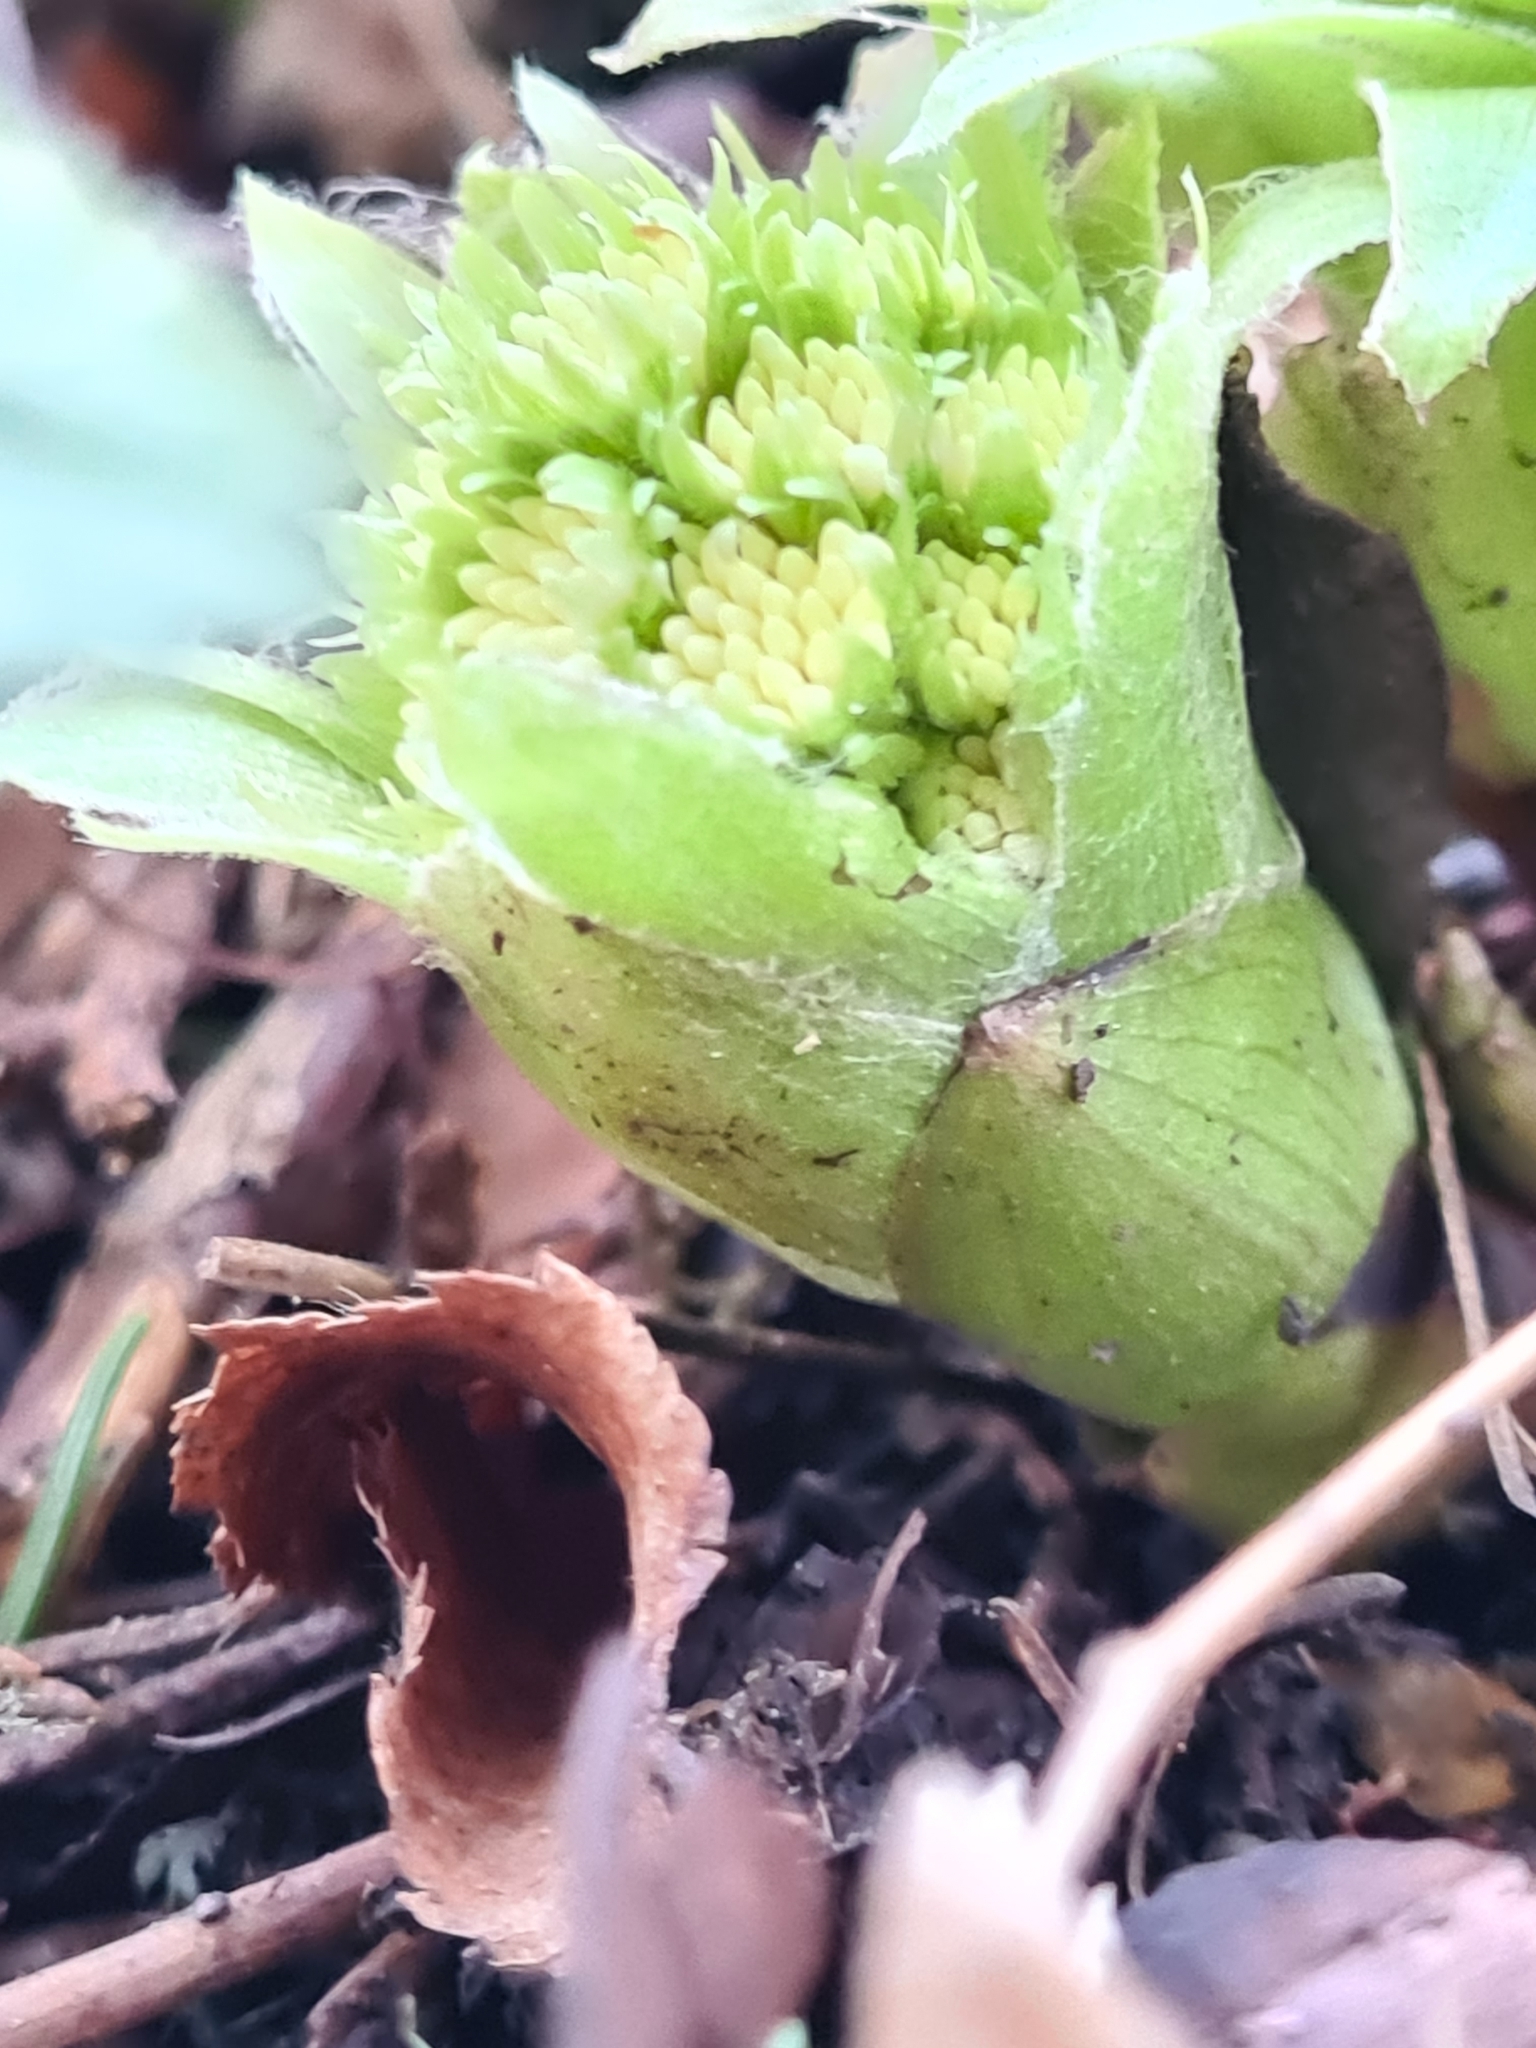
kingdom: Plantae
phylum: Tracheophyta
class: Magnoliopsida
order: Asterales
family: Asteraceae
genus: Petasites
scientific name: Petasites albus
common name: White butterbur
